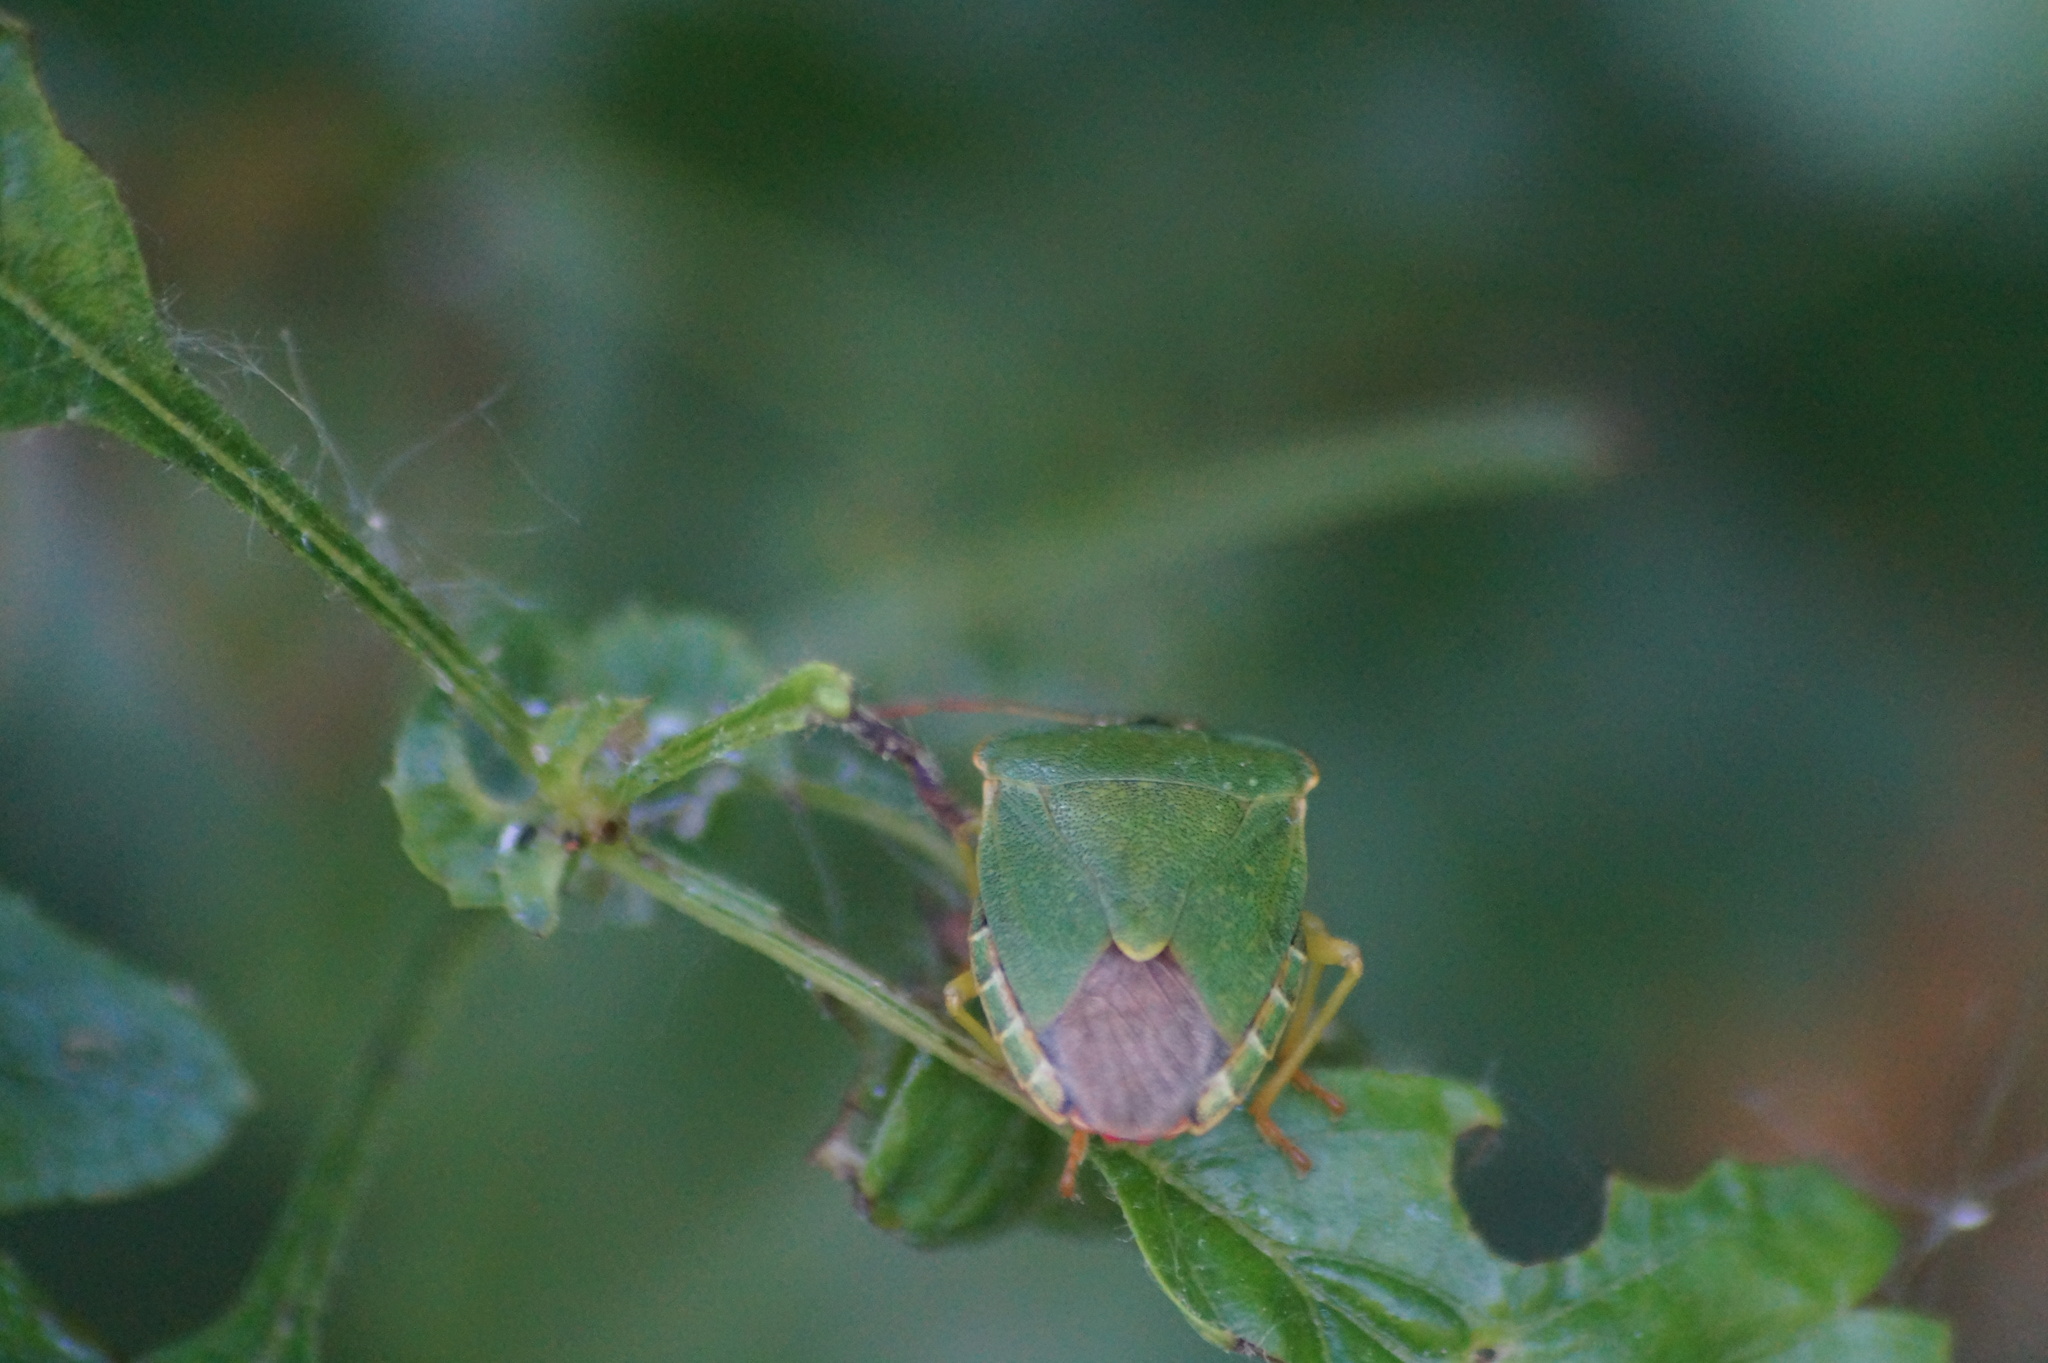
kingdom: Animalia
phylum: Arthropoda
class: Insecta
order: Hemiptera
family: Pentatomidae
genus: Palomena
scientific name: Palomena prasina
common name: Green shieldbug
